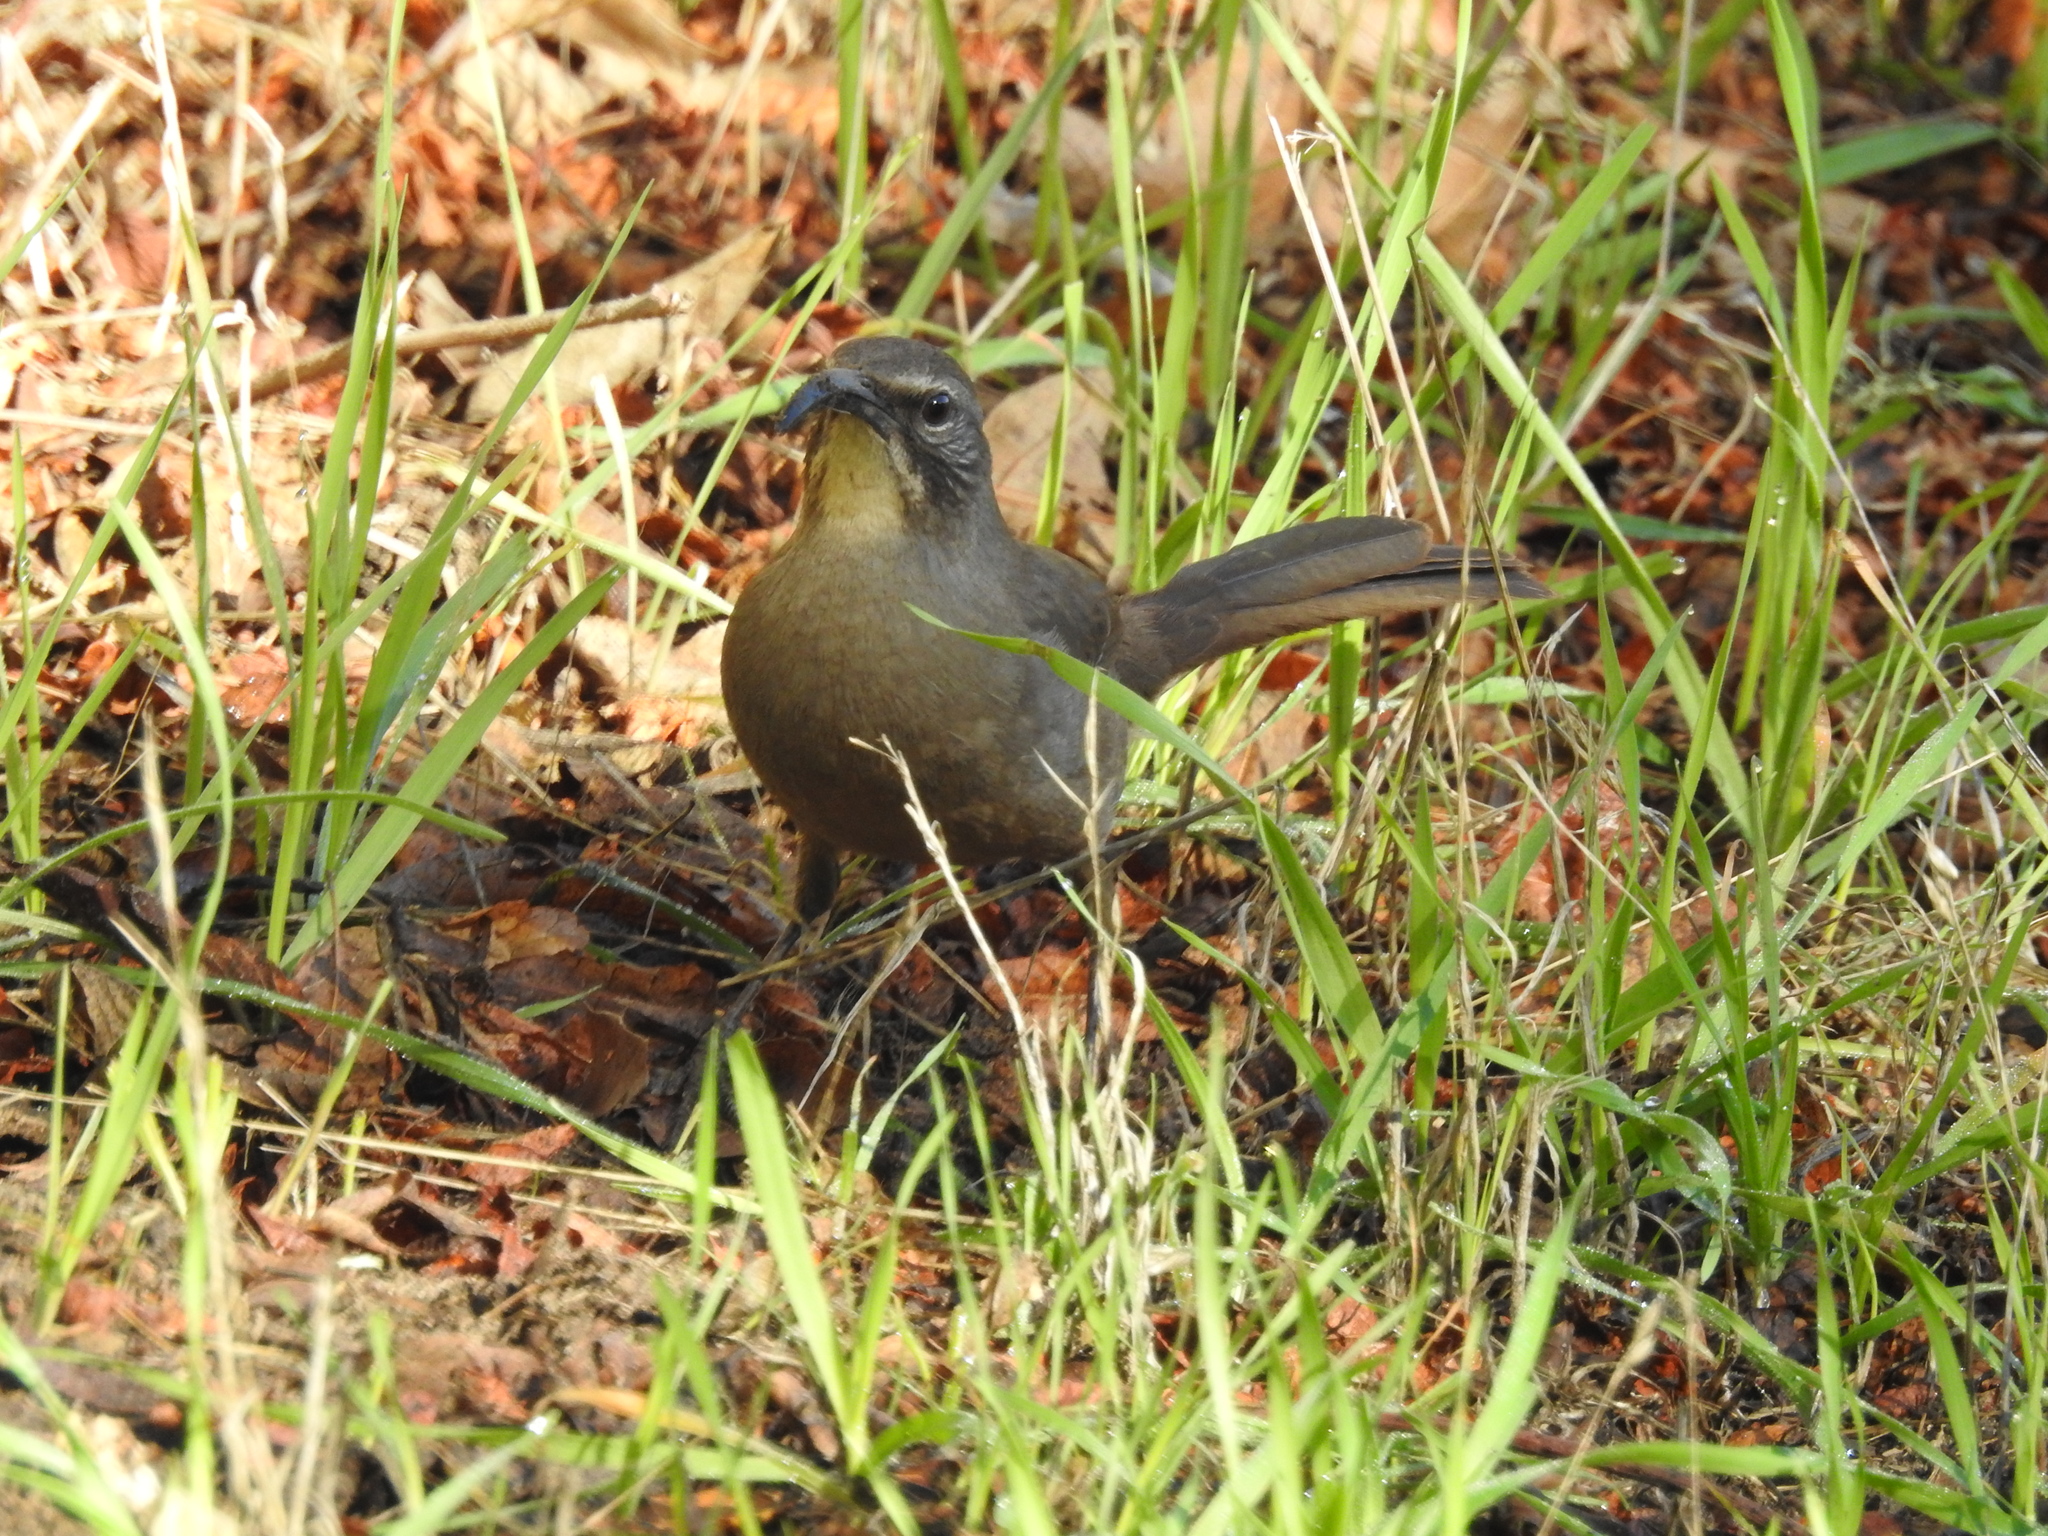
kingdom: Animalia
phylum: Chordata
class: Aves
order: Passeriformes
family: Mimidae
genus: Toxostoma
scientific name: Toxostoma redivivum
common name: California thrasher
